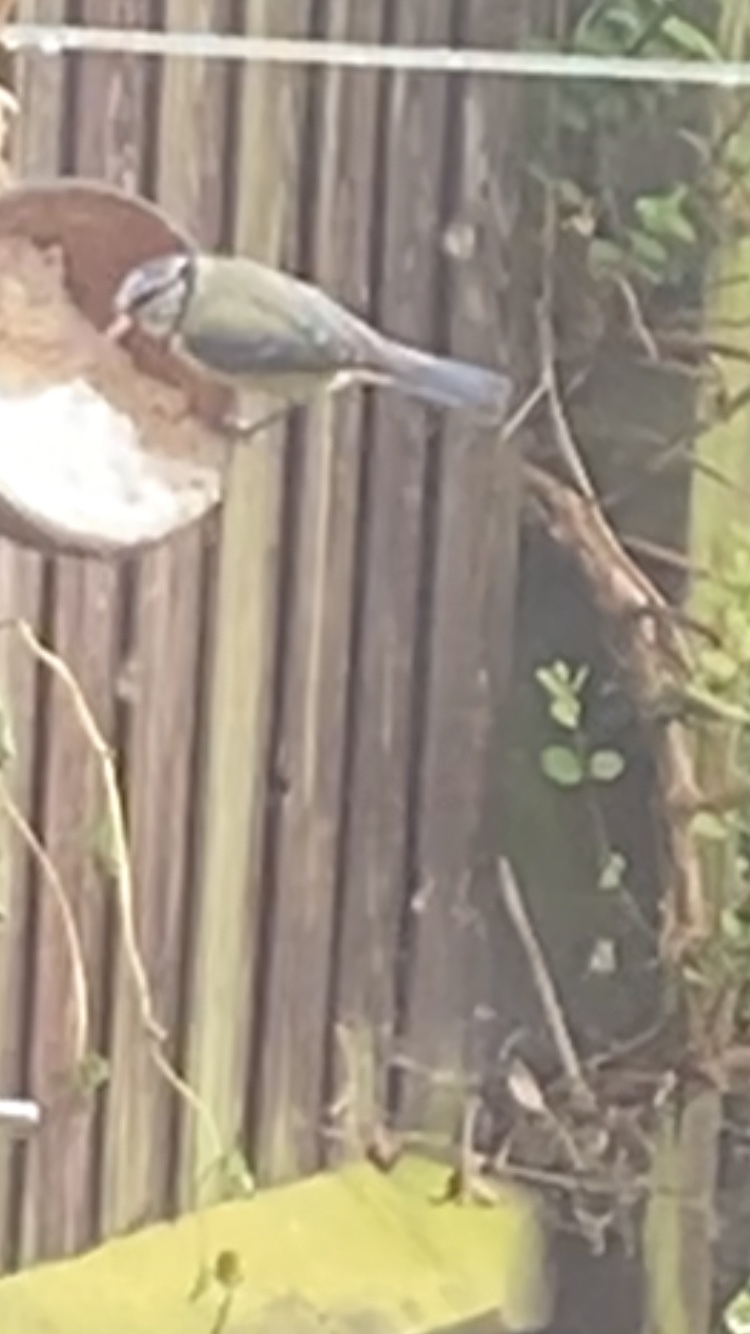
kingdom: Animalia
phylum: Chordata
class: Aves
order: Passeriformes
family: Paridae
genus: Cyanistes
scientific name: Cyanistes caeruleus
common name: Eurasian blue tit
